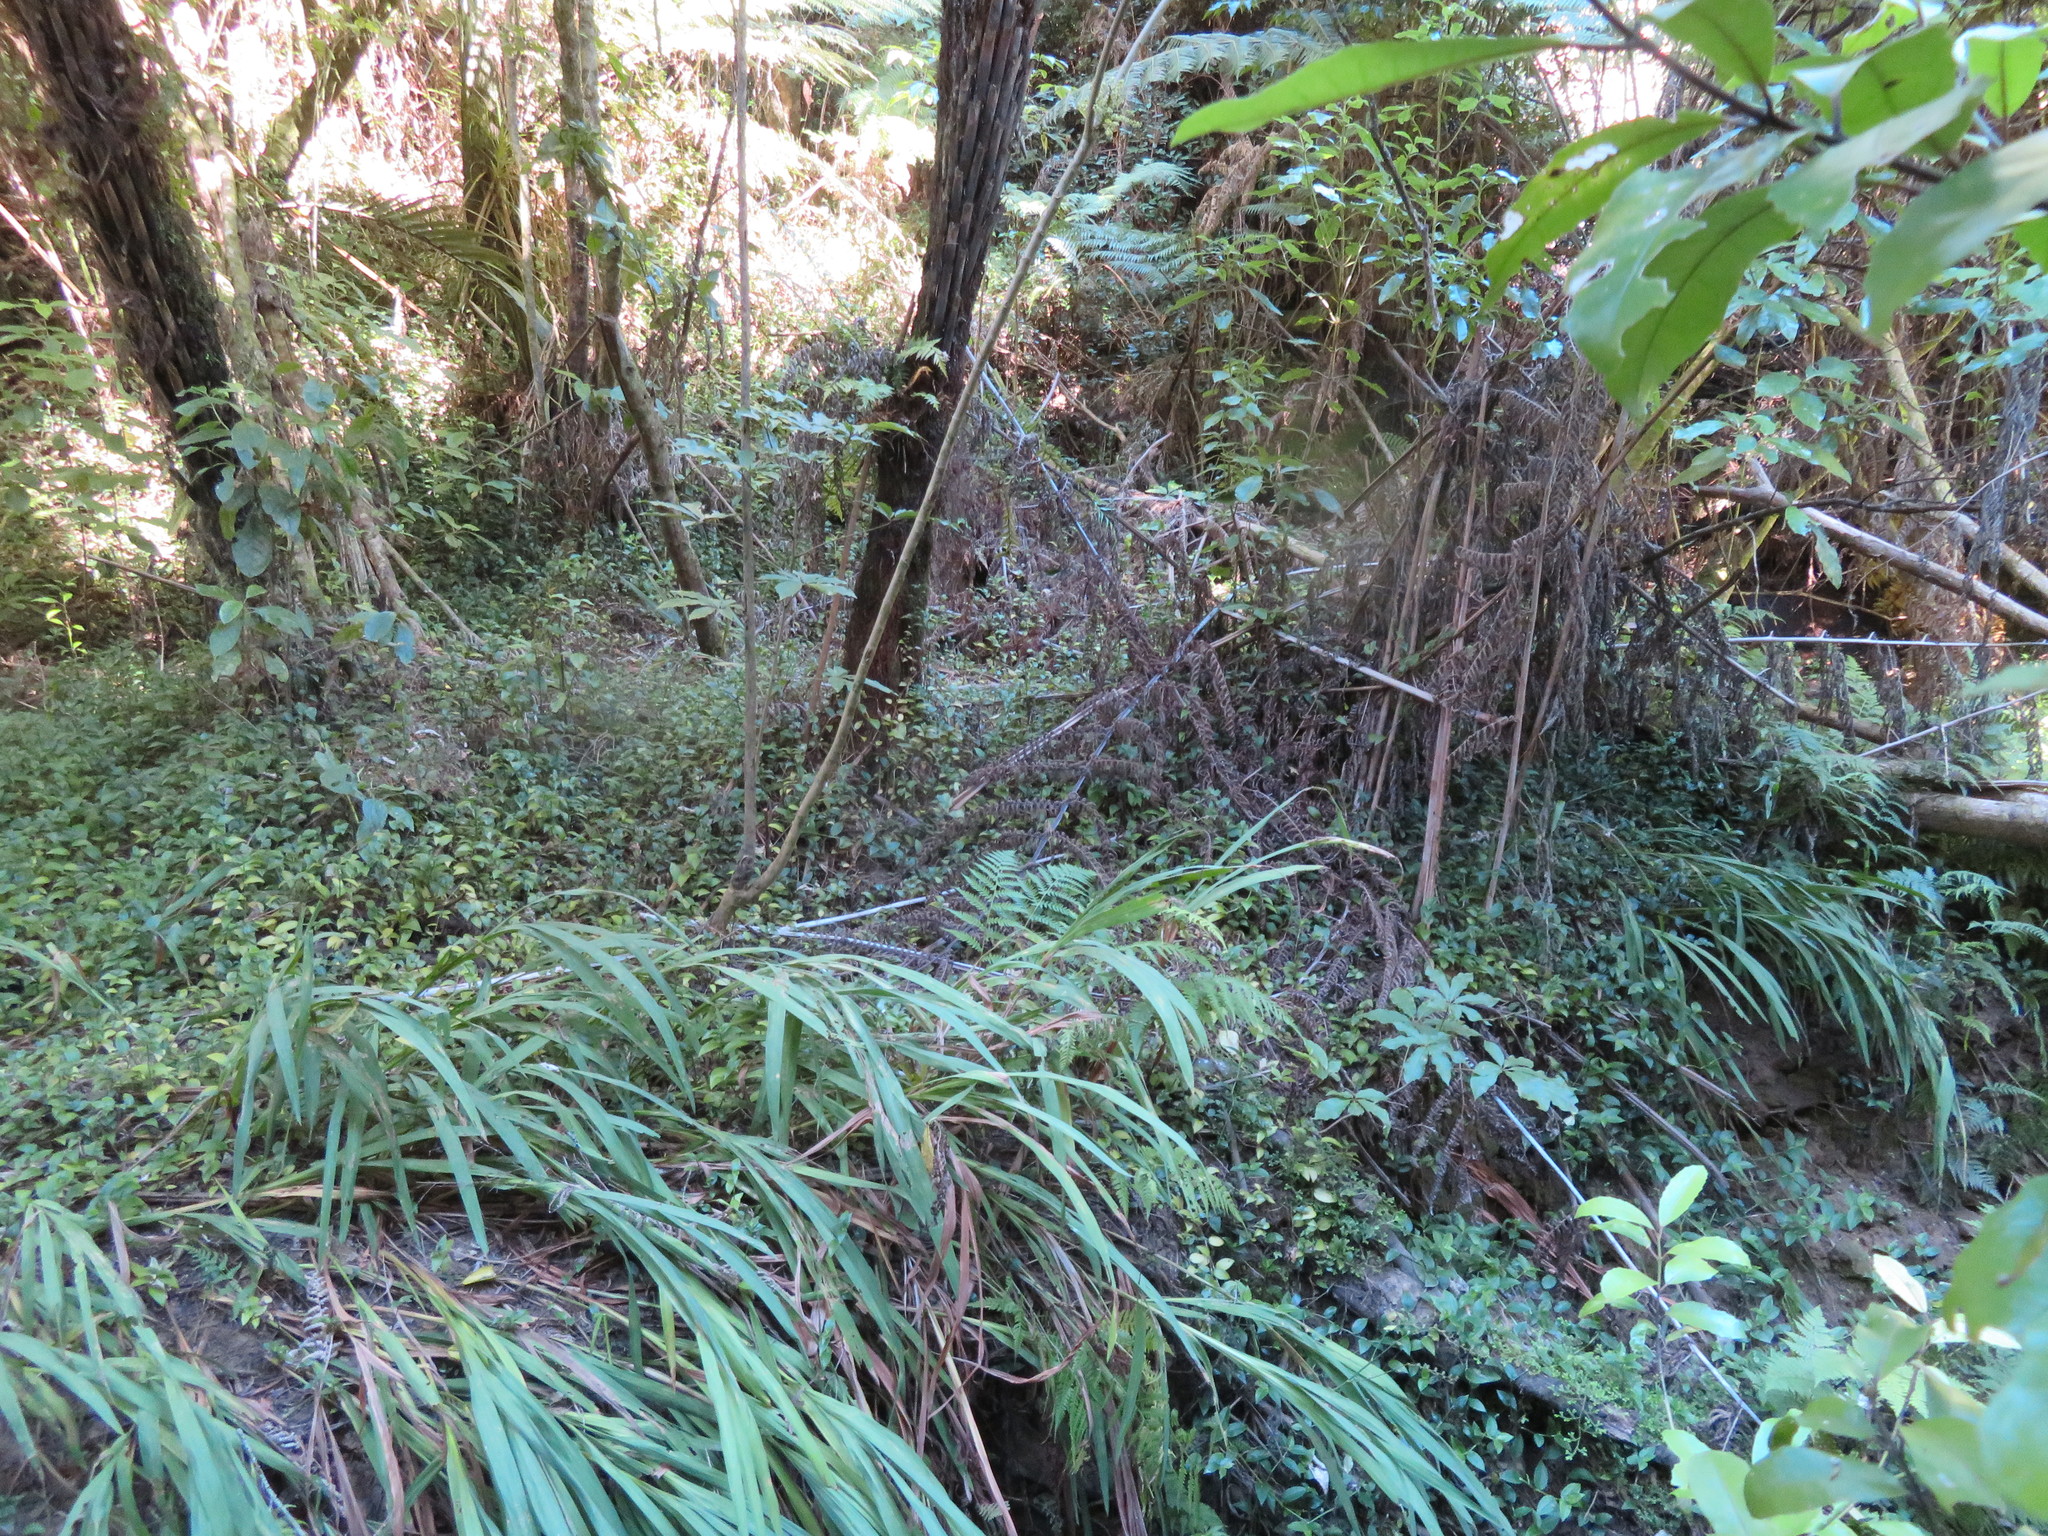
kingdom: Plantae
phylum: Tracheophyta
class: Liliopsida
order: Commelinales
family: Commelinaceae
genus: Tradescantia
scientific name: Tradescantia fluminensis
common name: Wandering-jew
